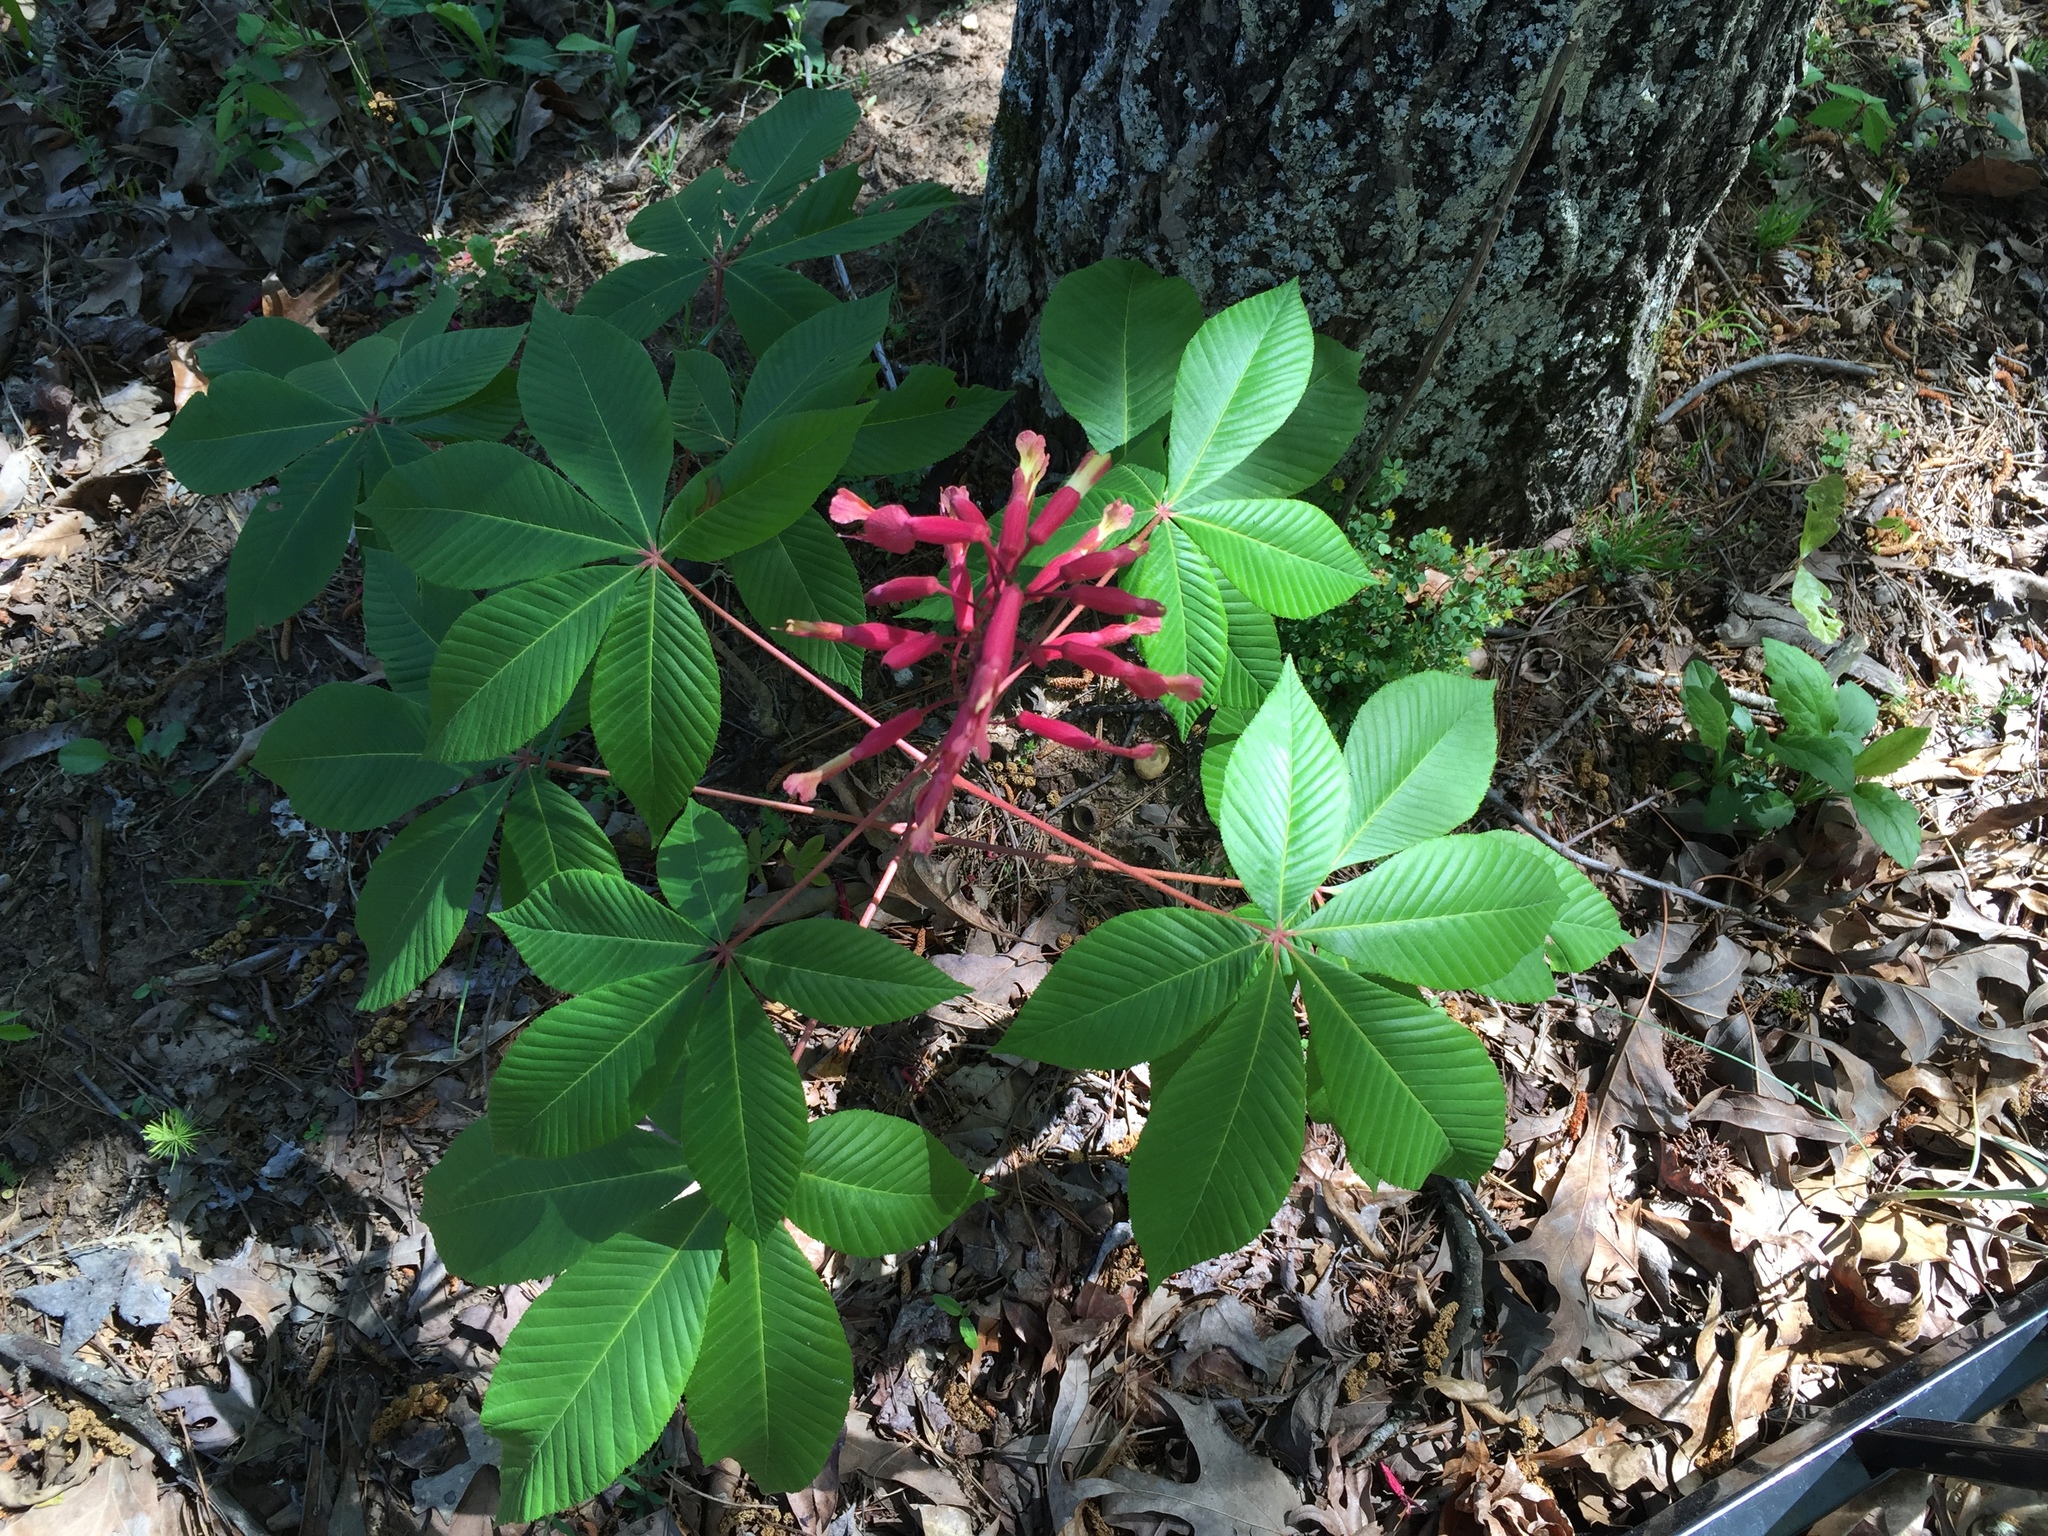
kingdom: Plantae
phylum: Tracheophyta
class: Magnoliopsida
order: Sapindales
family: Sapindaceae
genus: Aesculus
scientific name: Aesculus pavia
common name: Red buckeye
